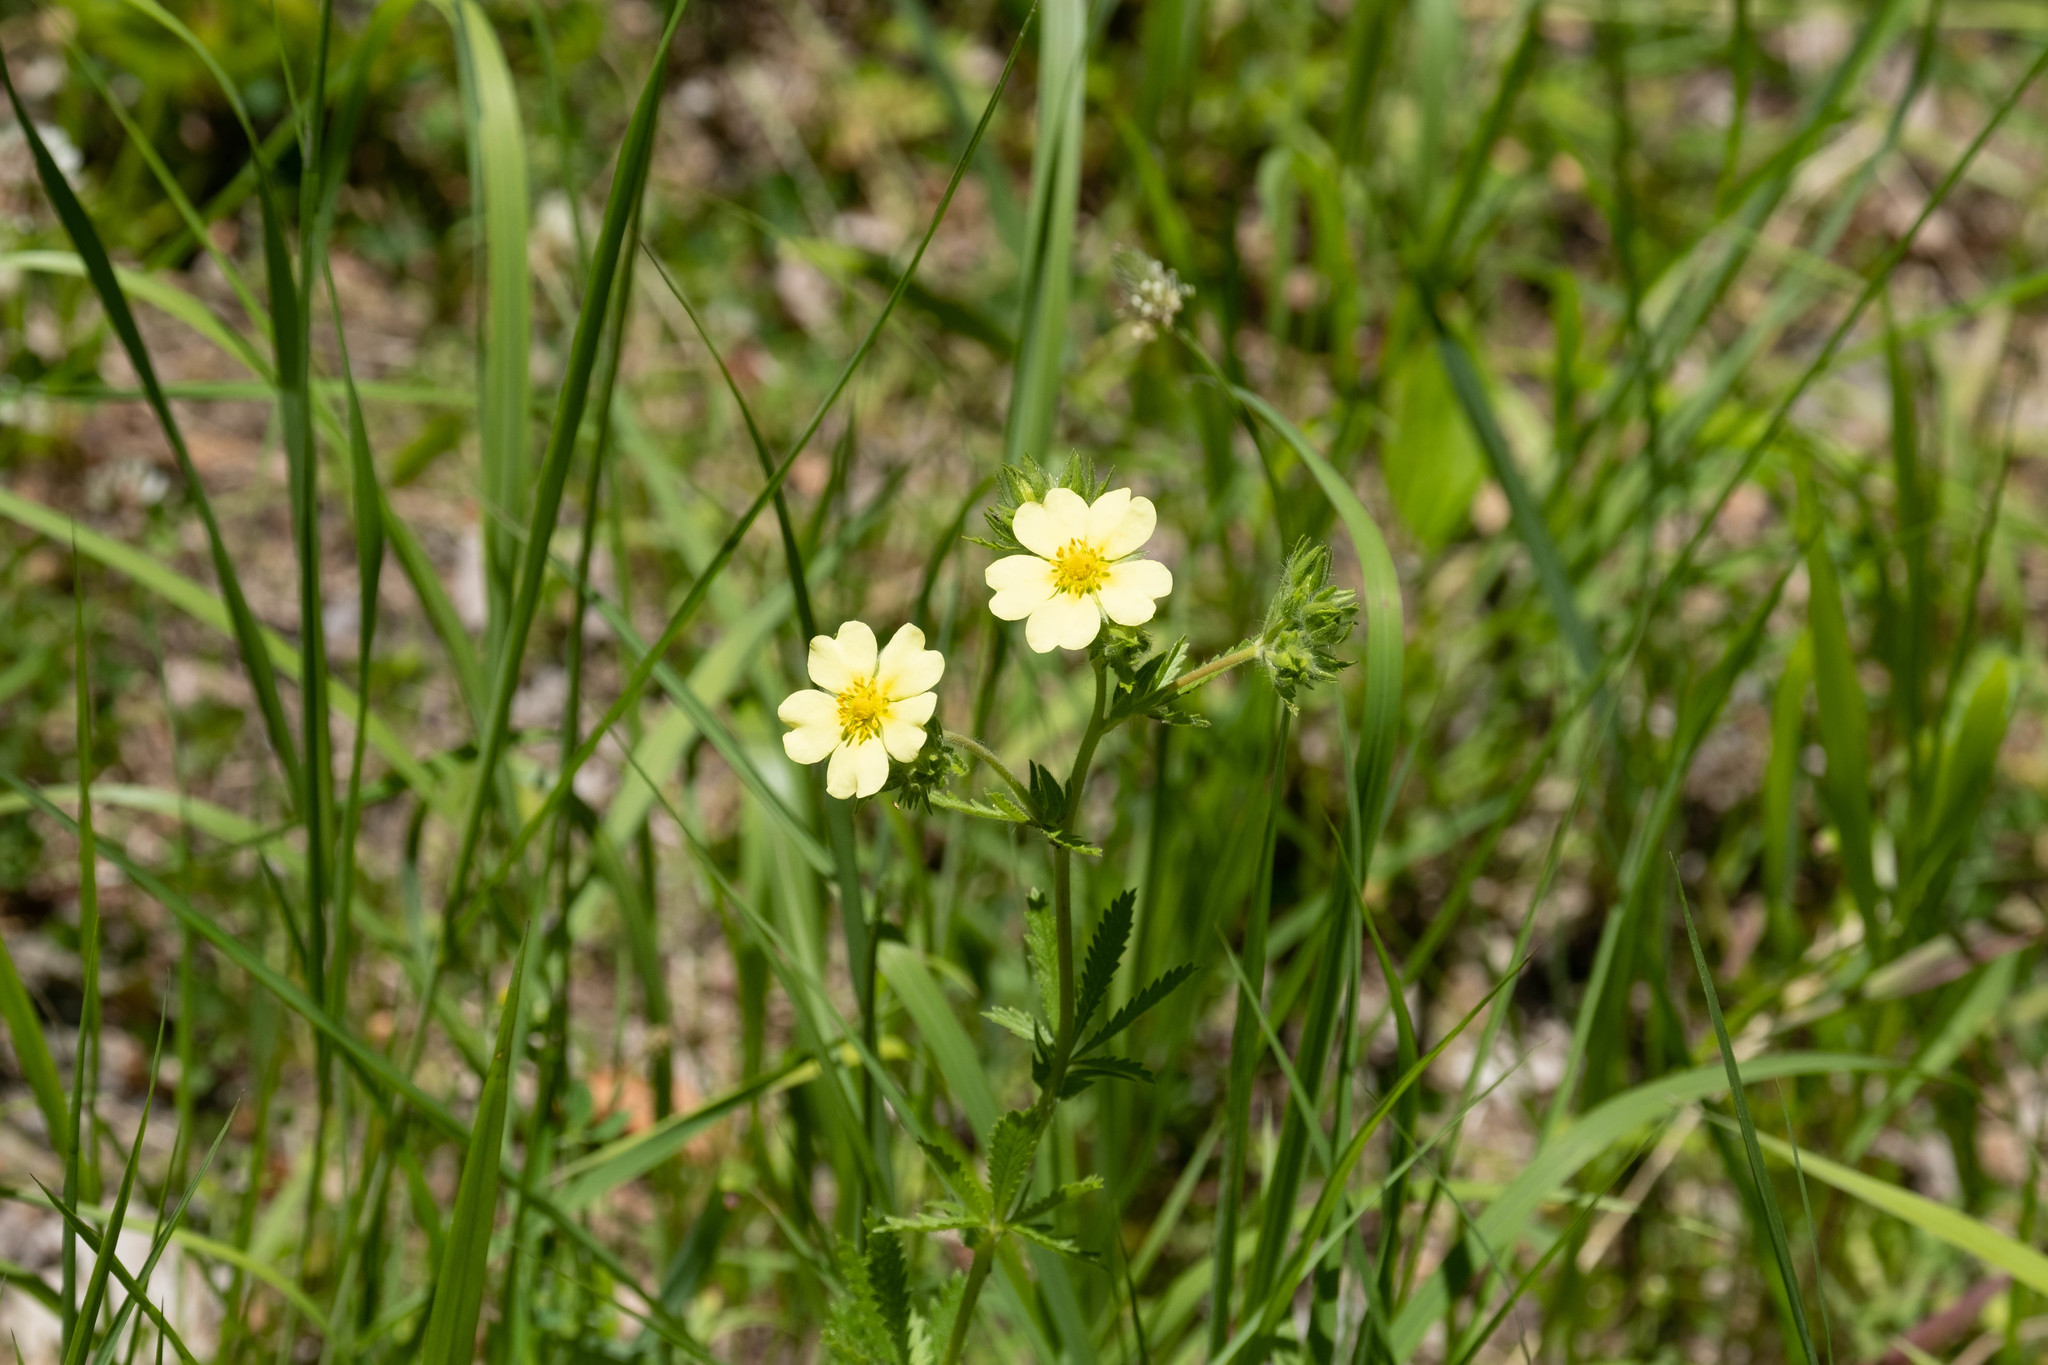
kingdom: Plantae
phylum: Tracheophyta
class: Magnoliopsida
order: Rosales
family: Rosaceae
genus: Potentilla
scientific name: Potentilla recta
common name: Sulphur cinquefoil
